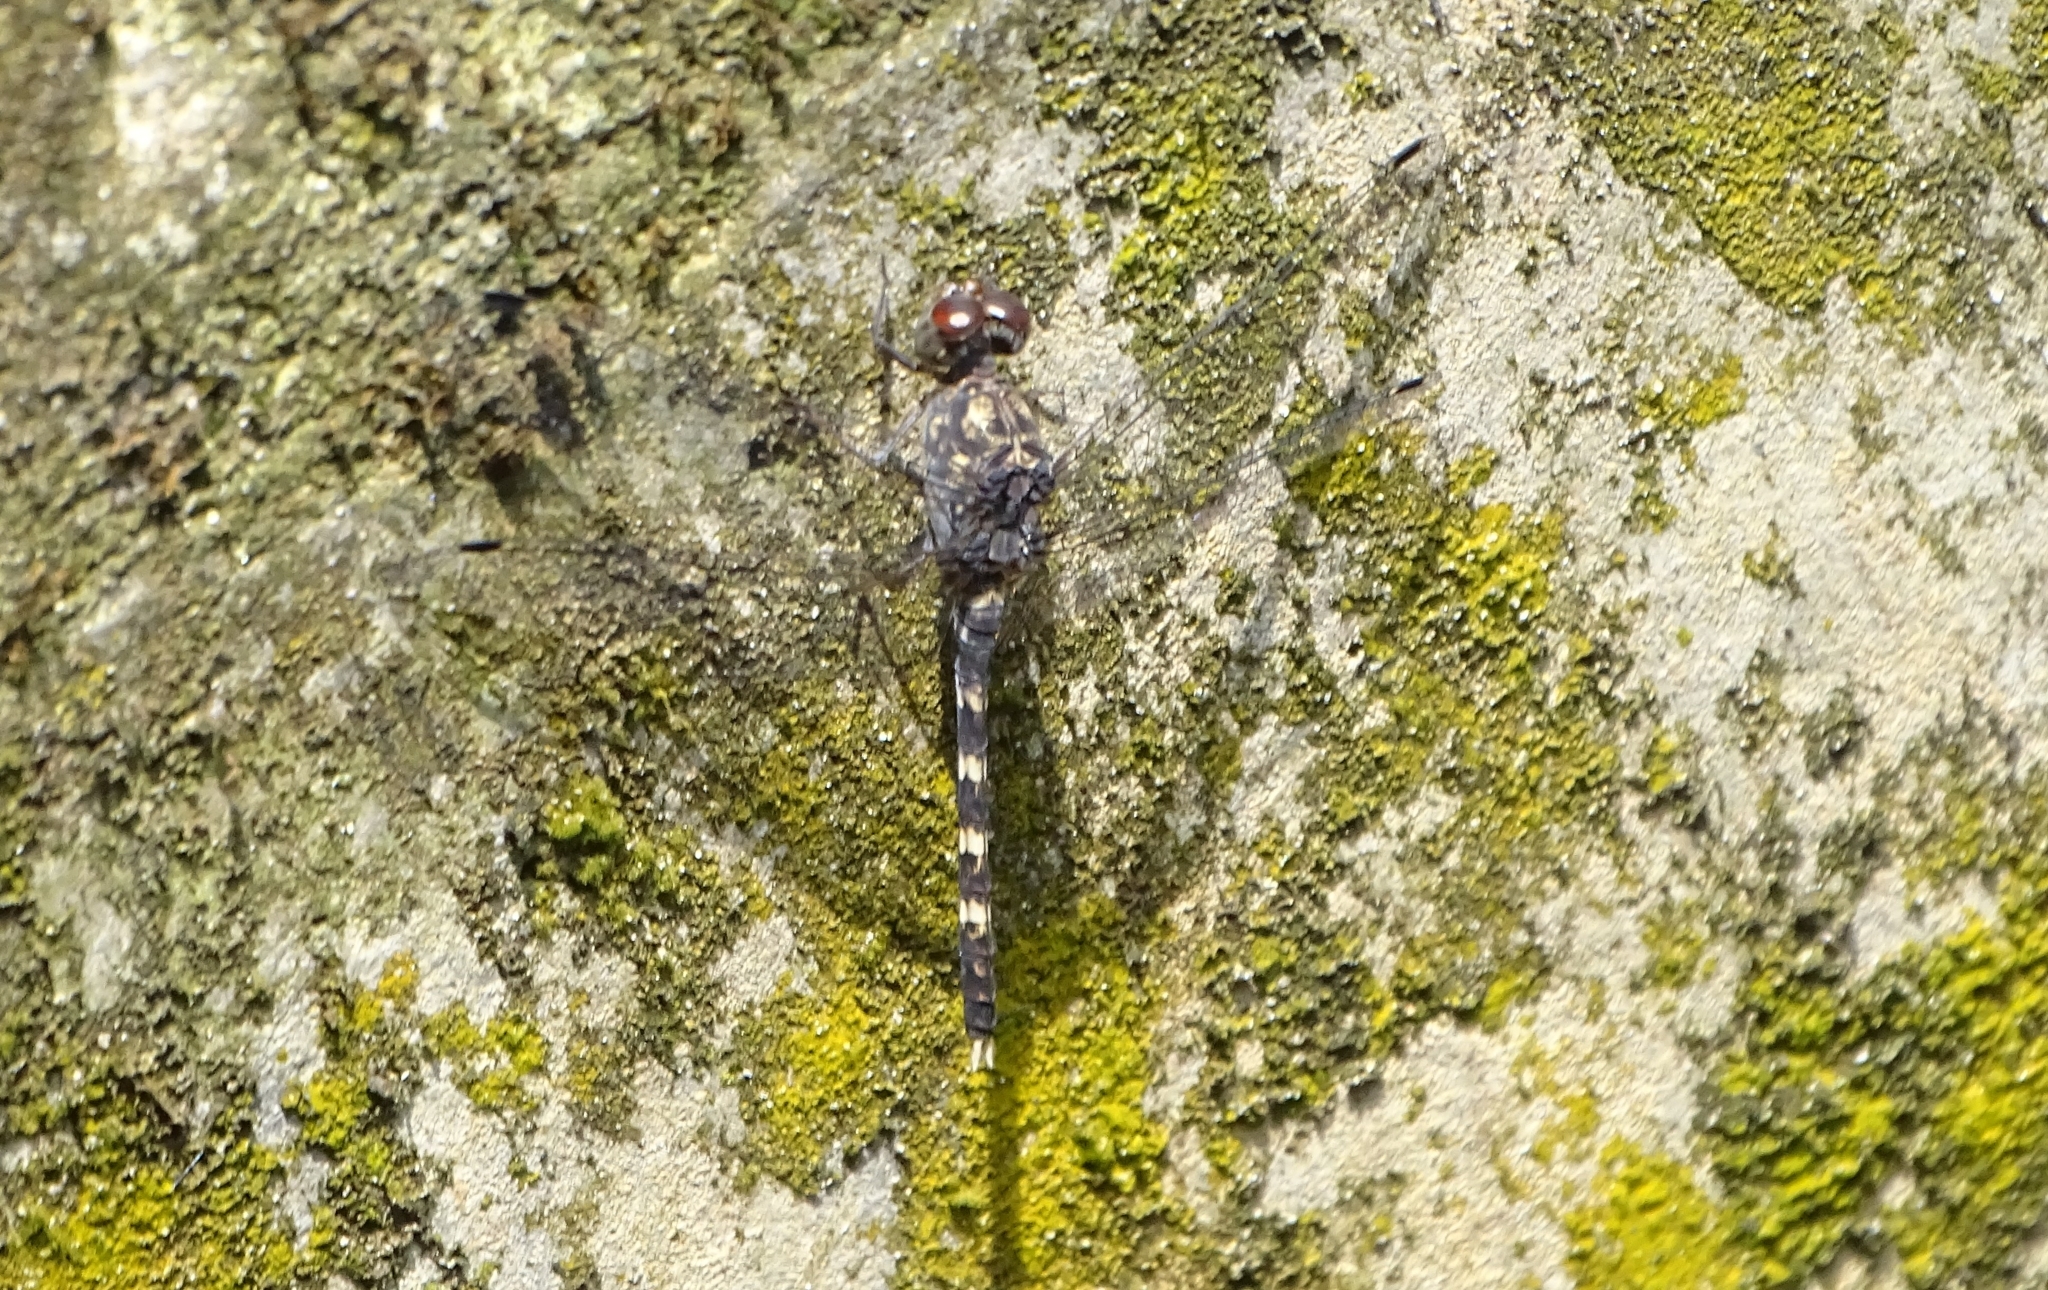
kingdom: Animalia
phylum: Arthropoda
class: Insecta
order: Odonata
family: Libellulidae
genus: Bradinopyga
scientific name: Bradinopyga geminata
